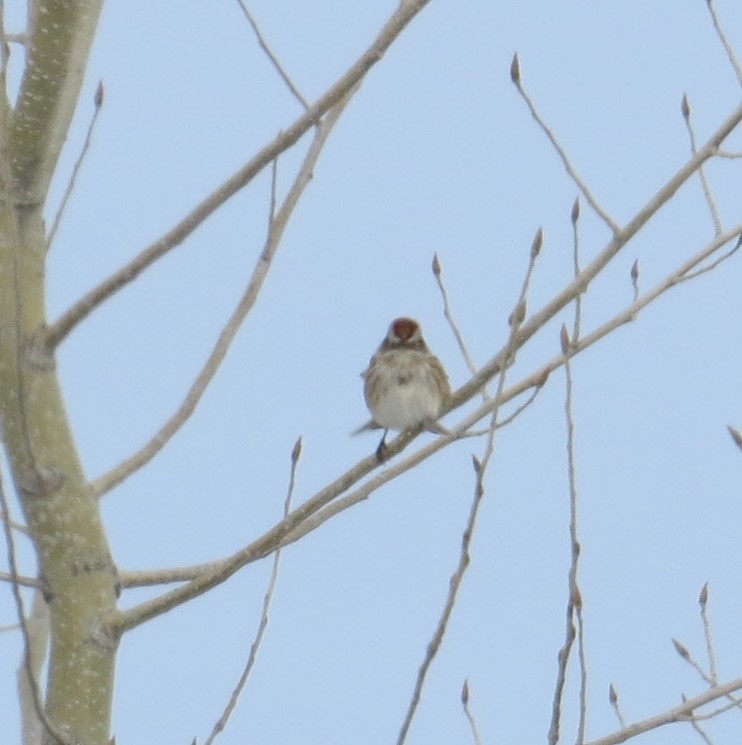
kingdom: Animalia
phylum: Chordata
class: Aves
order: Passeriformes
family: Passerellidae
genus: Spizelloides
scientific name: Spizelloides arborea
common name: American tree sparrow
